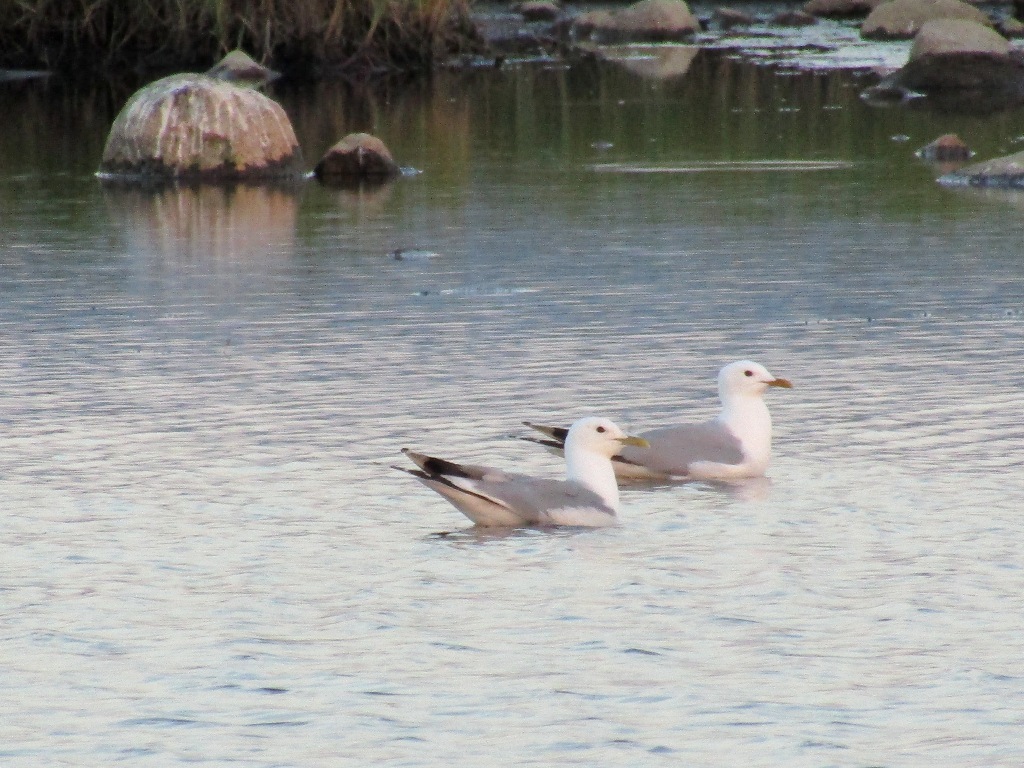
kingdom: Animalia
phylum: Chordata
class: Aves
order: Charadriiformes
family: Laridae
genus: Larus
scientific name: Larus canus
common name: Mew gull
